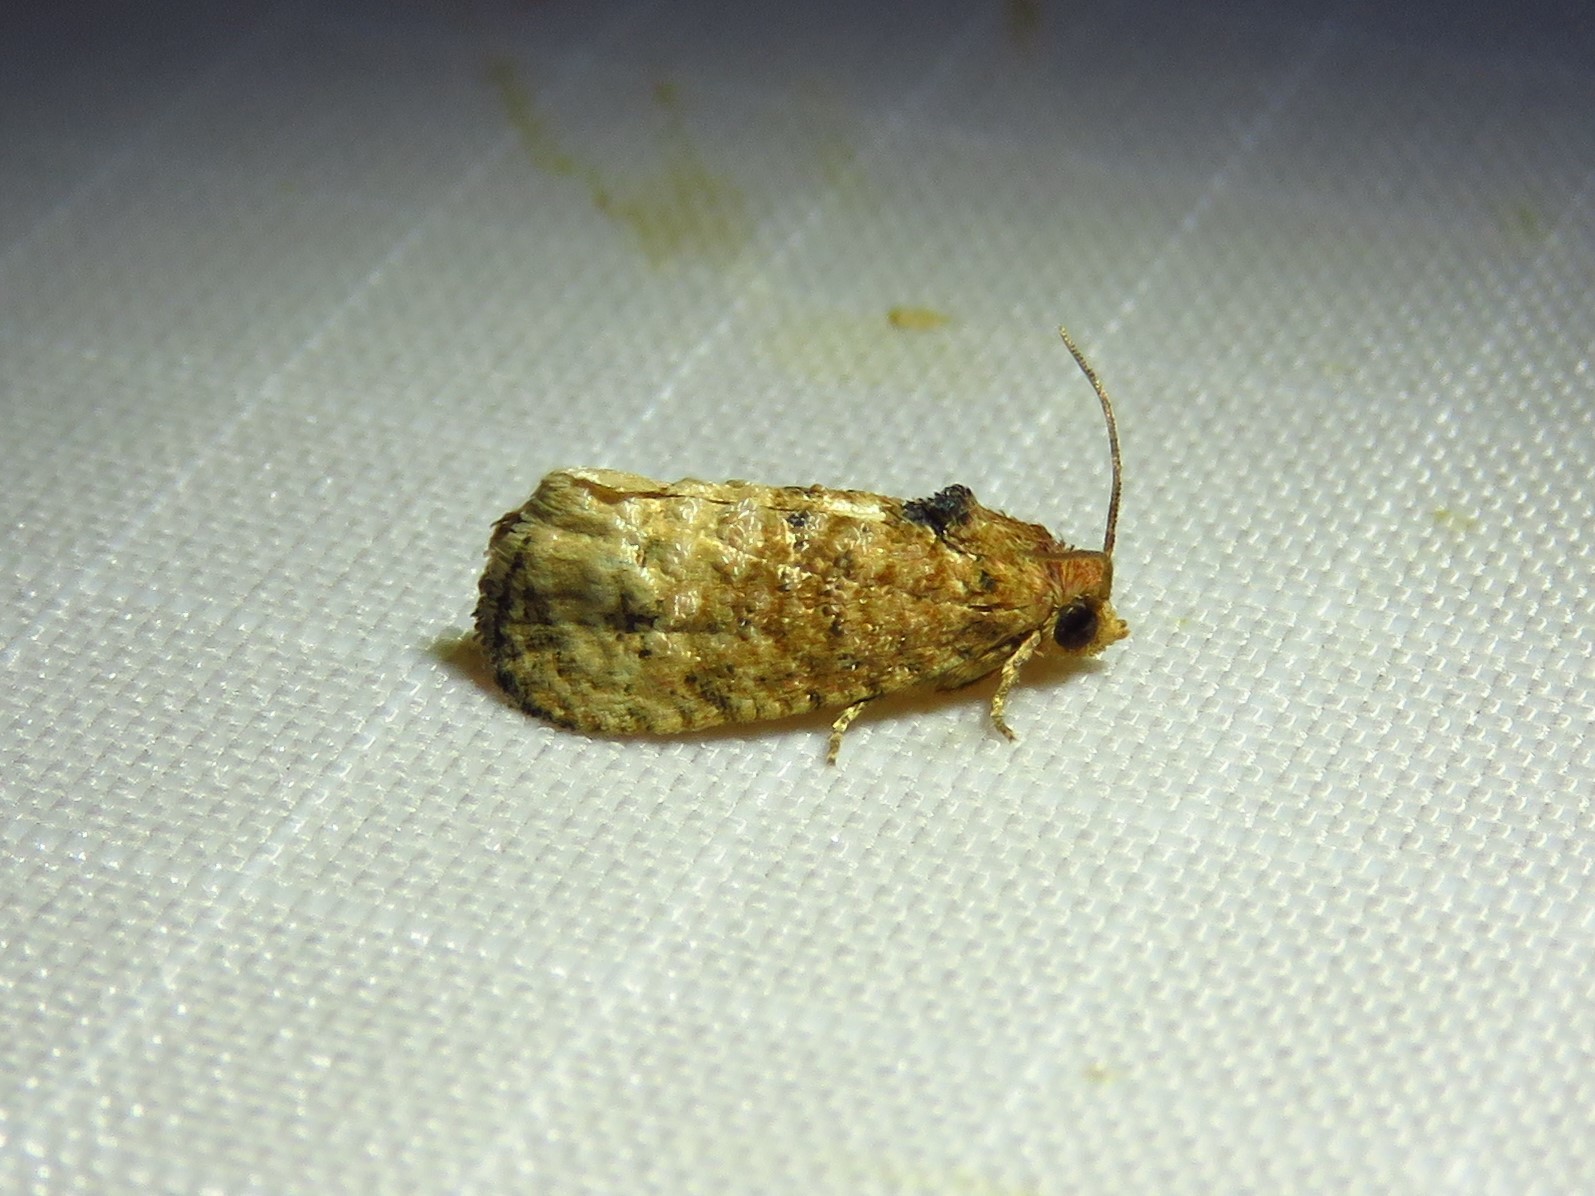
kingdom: Animalia
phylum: Arthropoda
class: Insecta
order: Lepidoptera
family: Tortricidae
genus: Ecdytolopha
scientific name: Ecdytolopha mana
